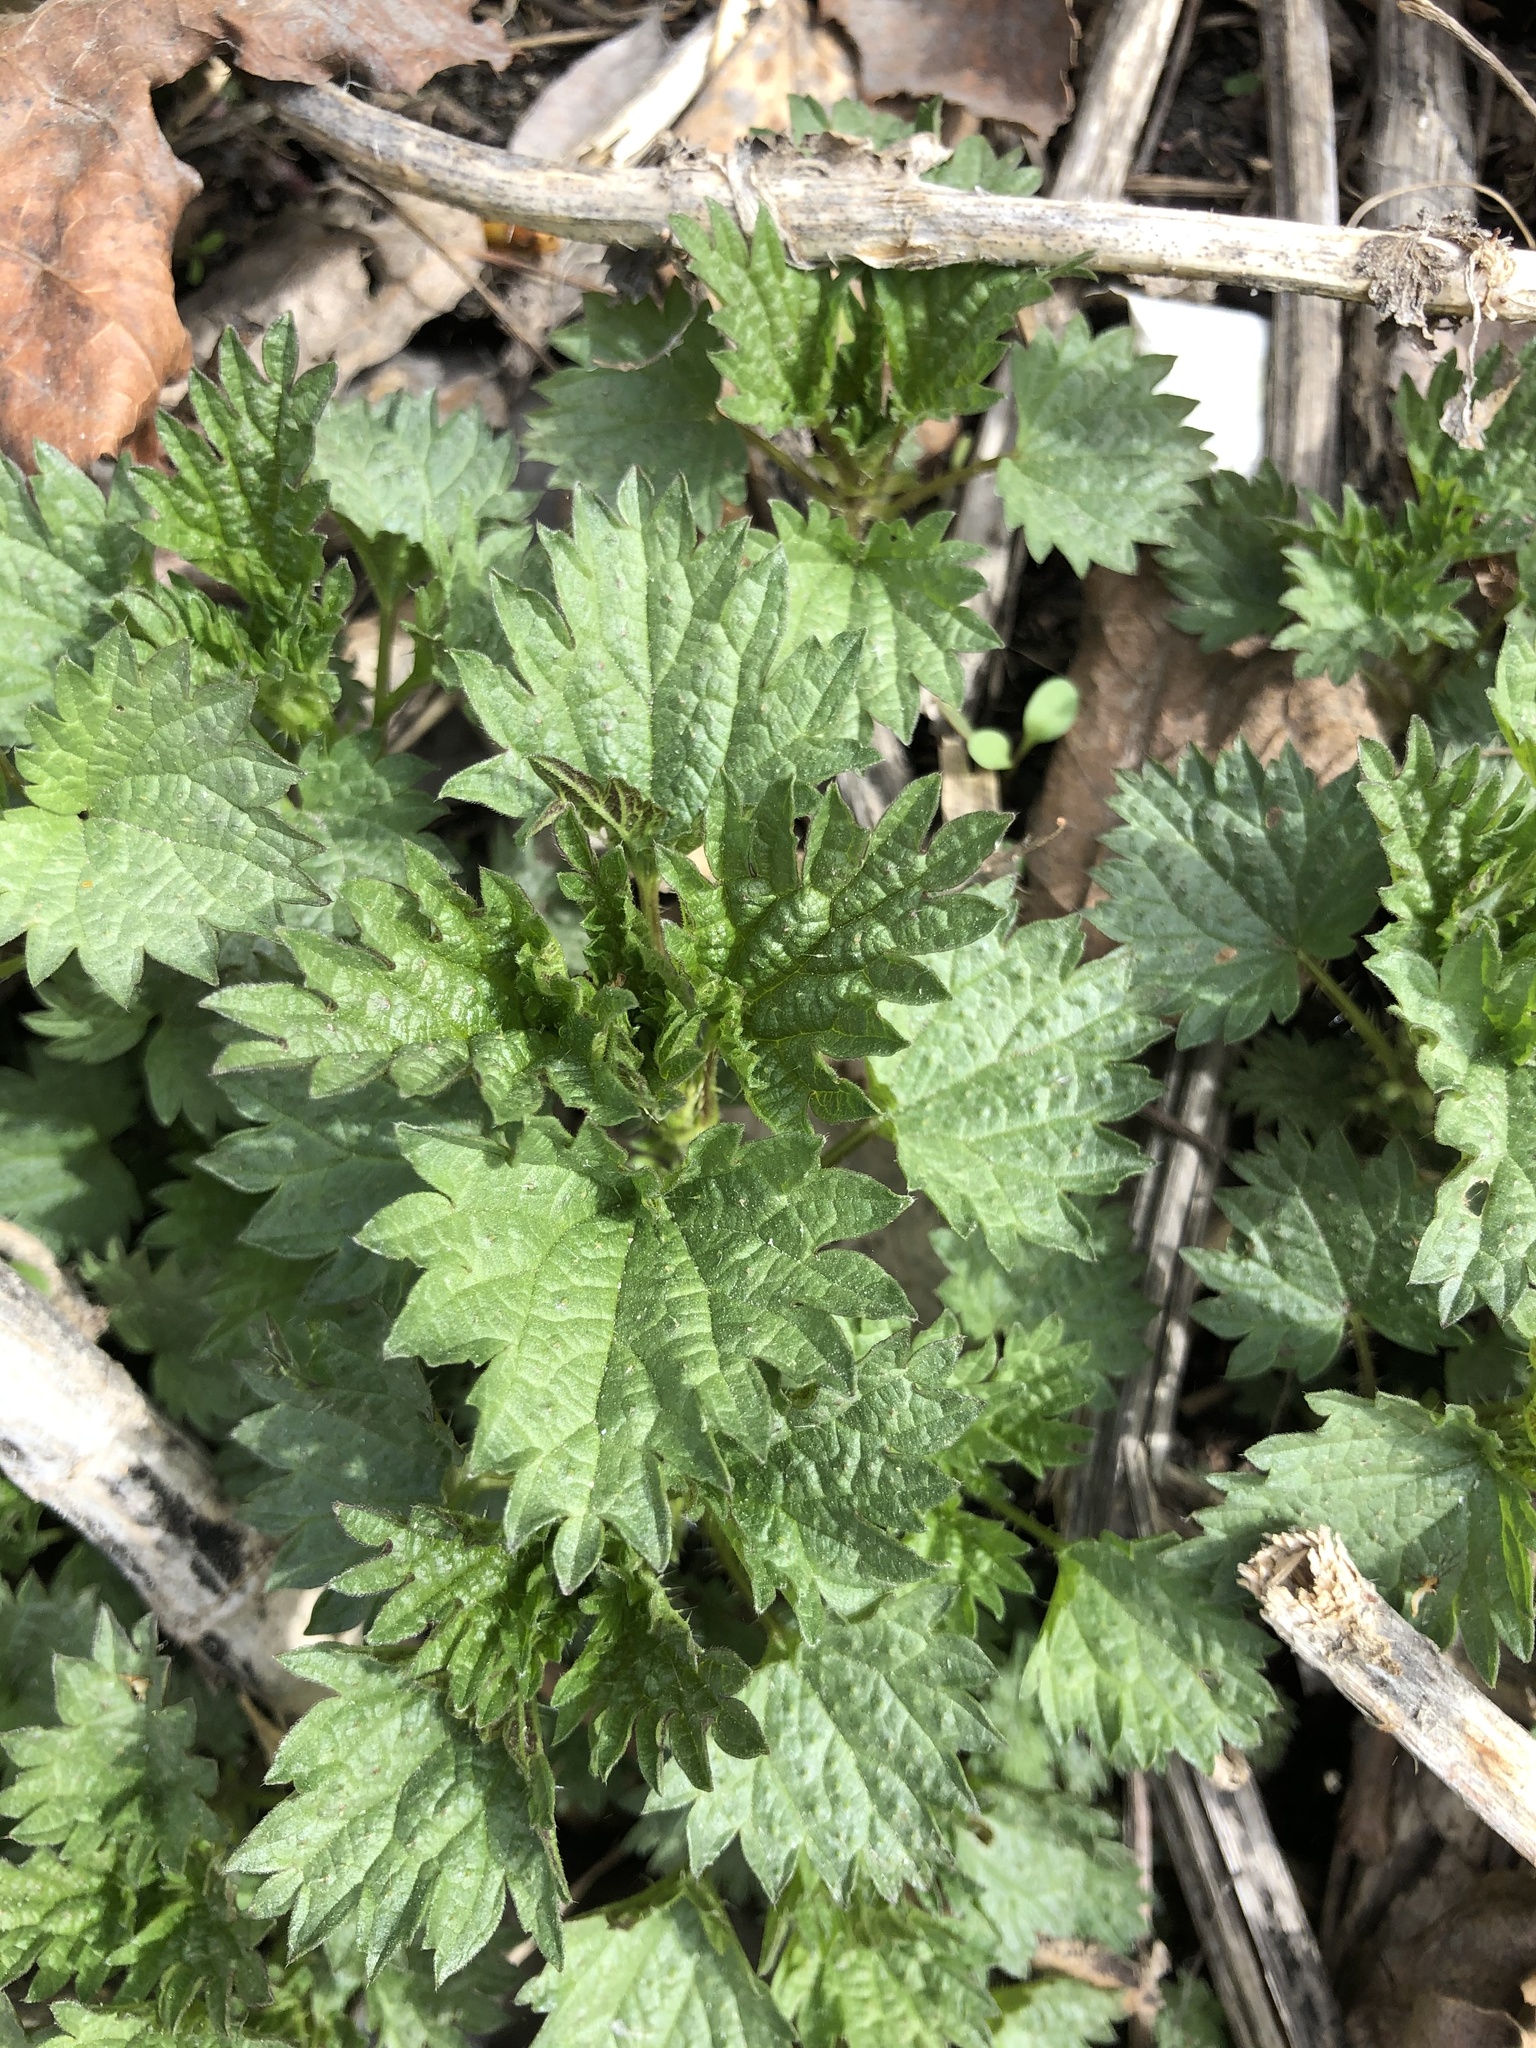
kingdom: Plantae
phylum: Tracheophyta
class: Magnoliopsida
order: Rosales
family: Urticaceae
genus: Urtica
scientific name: Urtica dioica
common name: Common nettle
